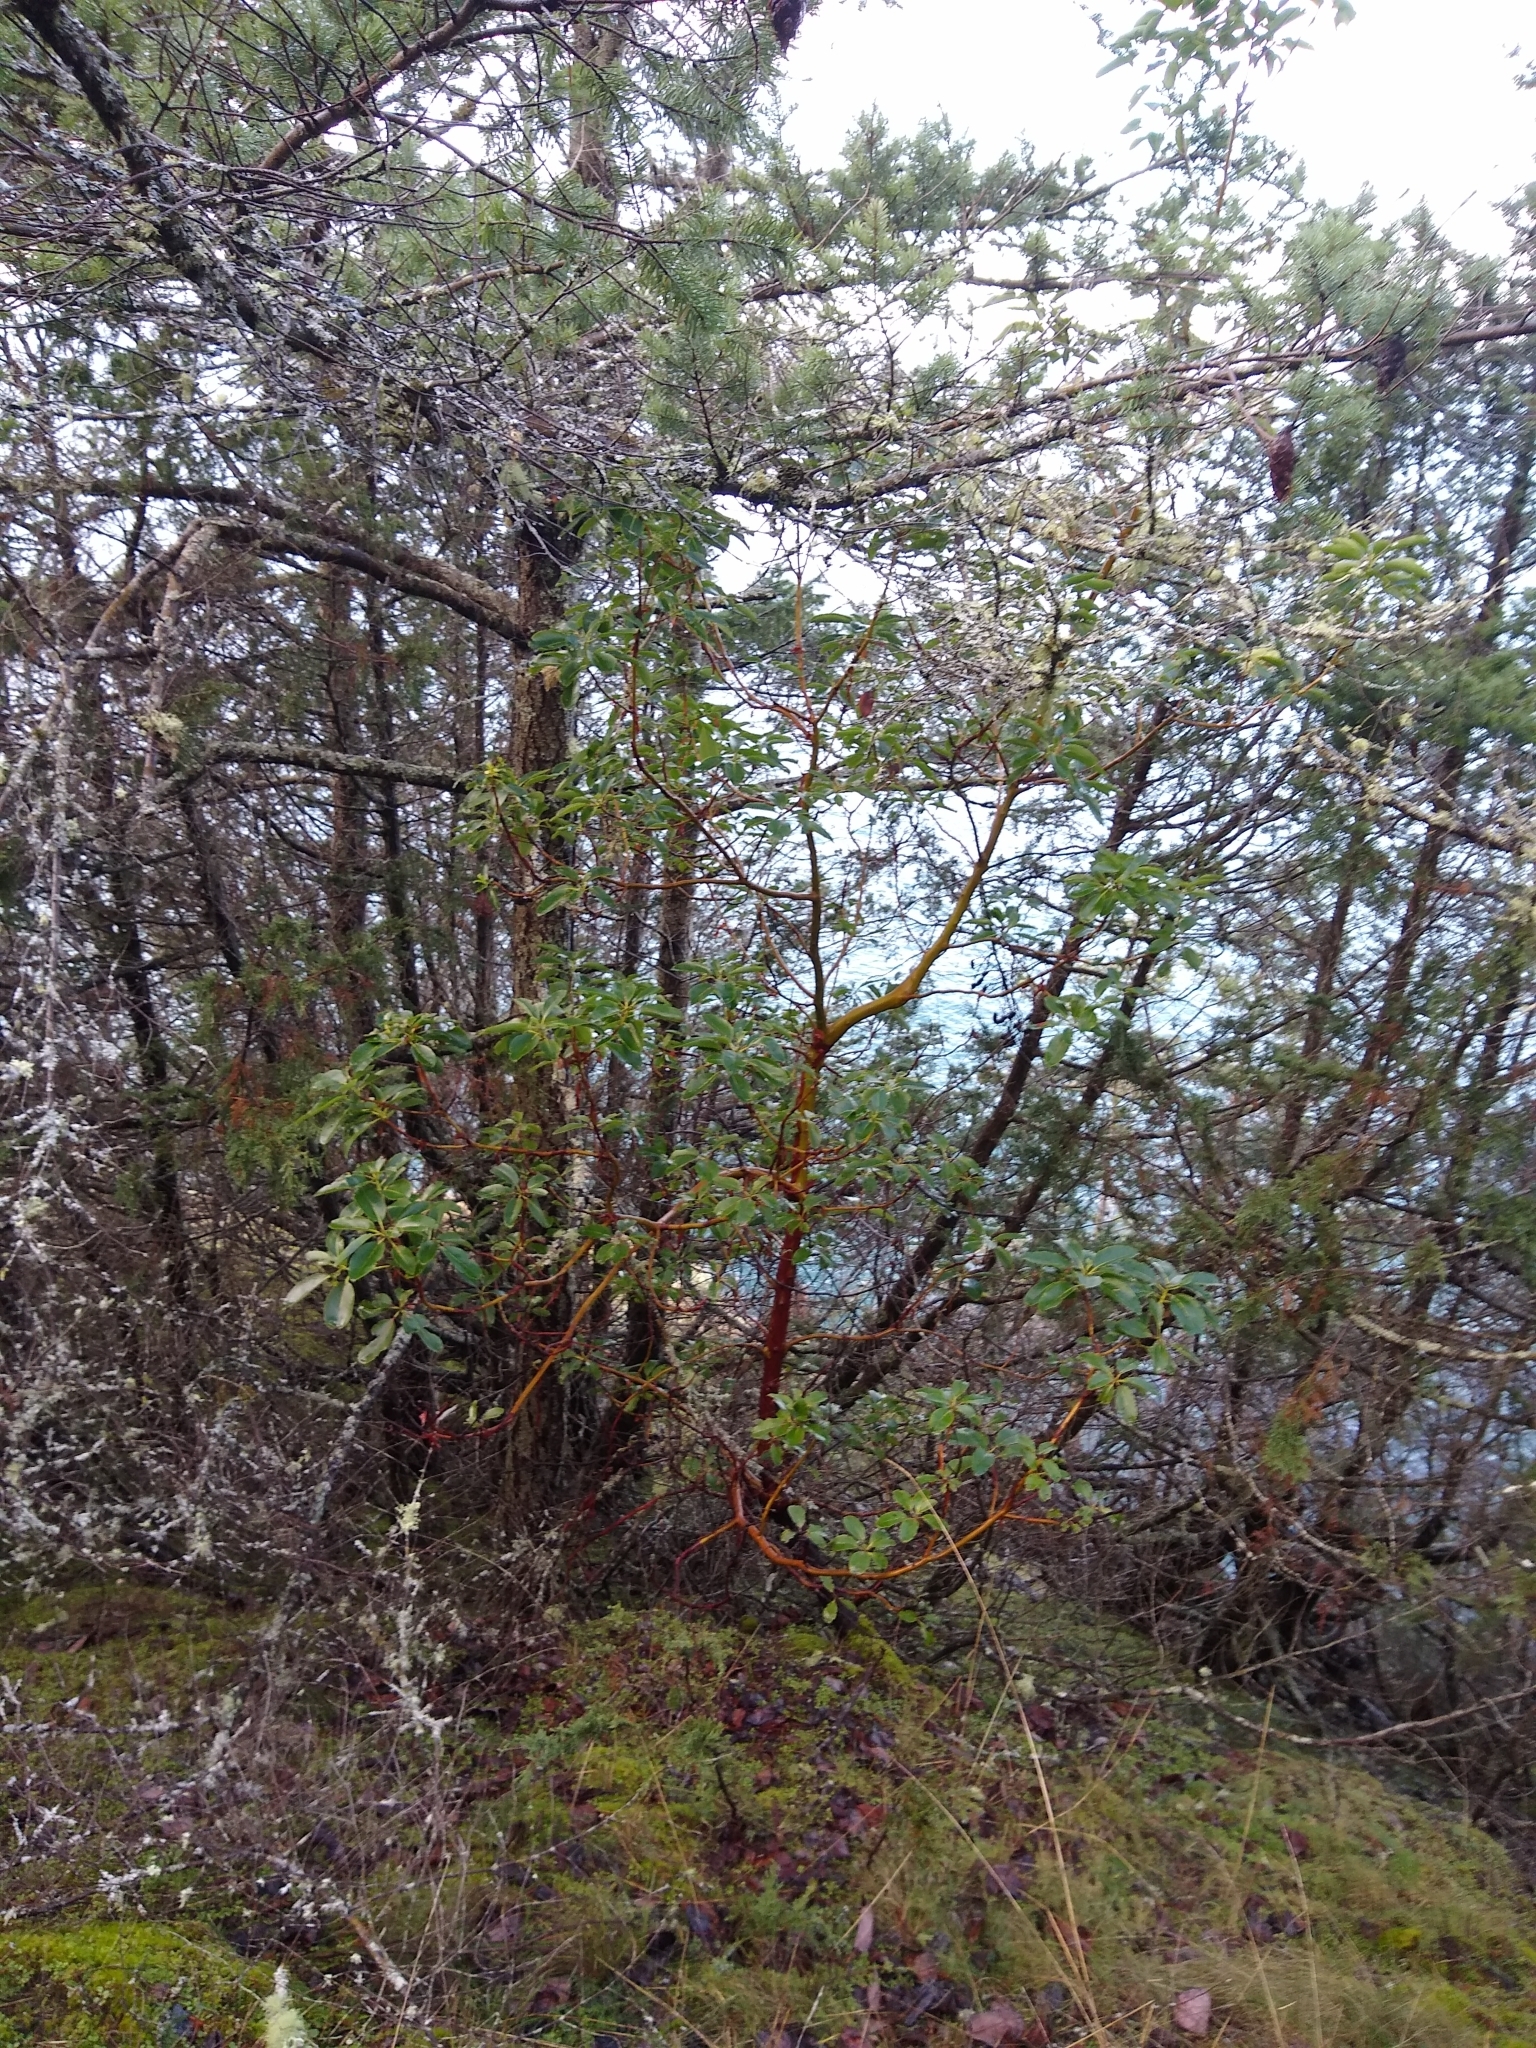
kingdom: Plantae
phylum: Tracheophyta
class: Magnoliopsida
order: Ericales
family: Ericaceae
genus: Arbutus
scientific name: Arbutus menziesii
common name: Pacific madrone
